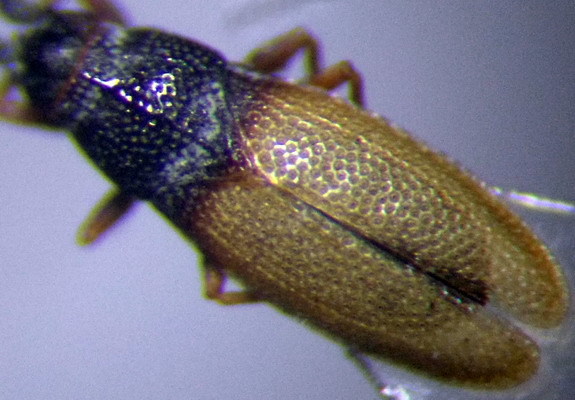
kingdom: Animalia
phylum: Arthropoda
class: Insecta
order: Hemiptera
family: Tingidae
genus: Agramma
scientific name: Agramma minutum
